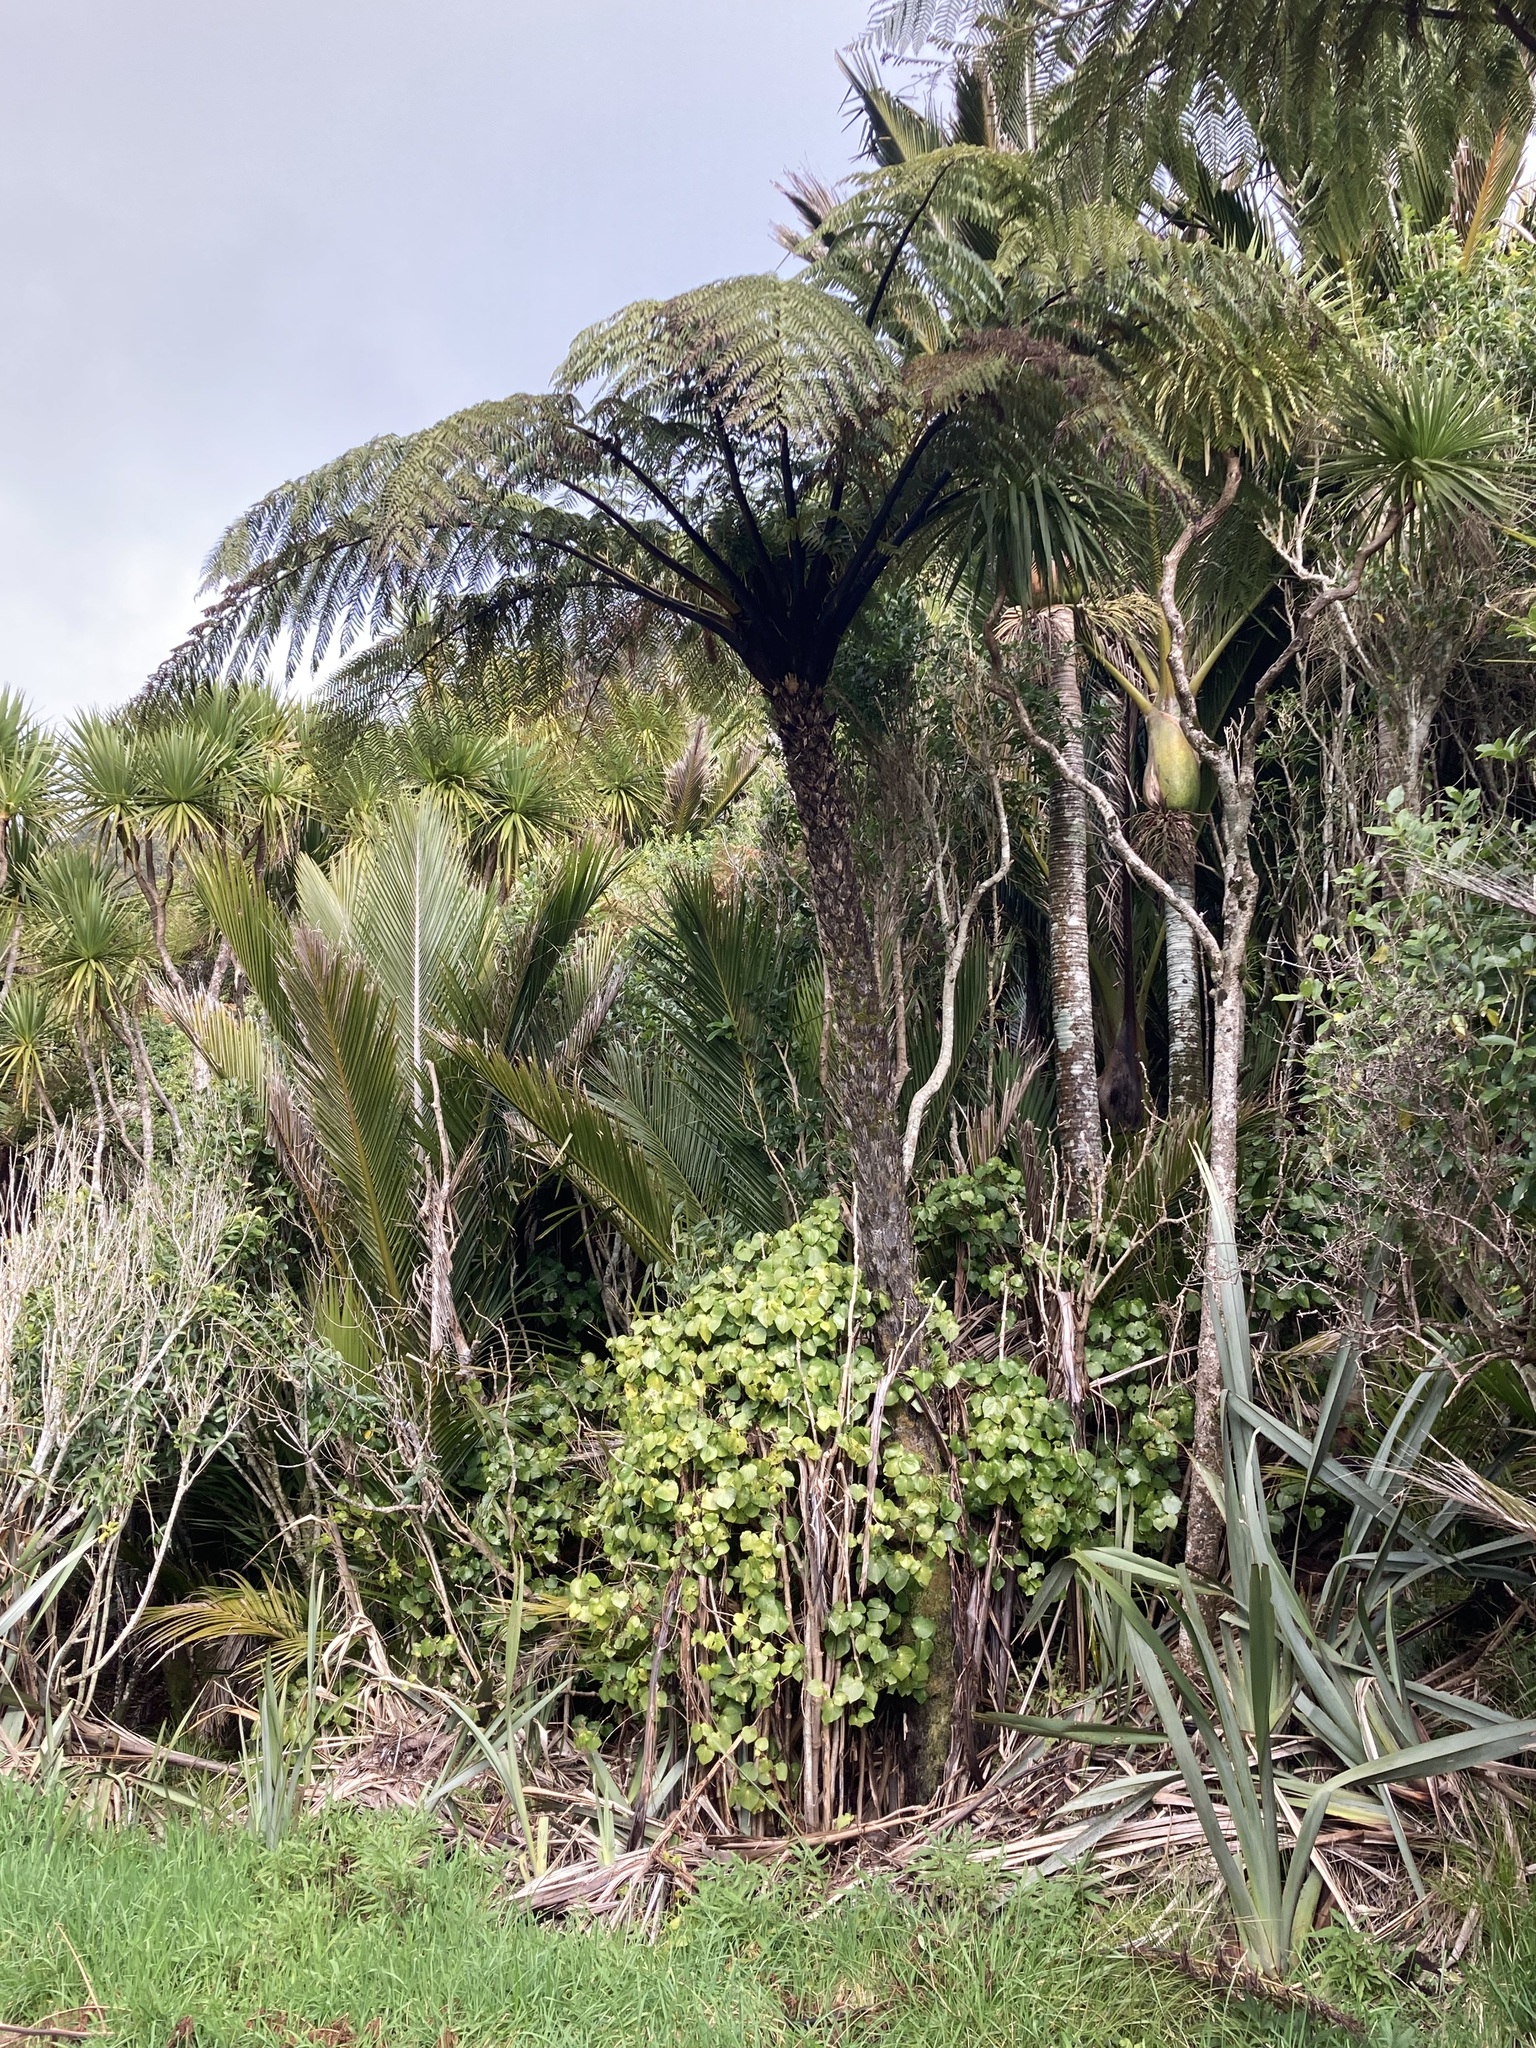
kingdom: Plantae
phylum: Tracheophyta
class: Polypodiopsida
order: Cyatheales
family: Cyatheaceae
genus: Sphaeropteris
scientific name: Sphaeropteris medullaris
